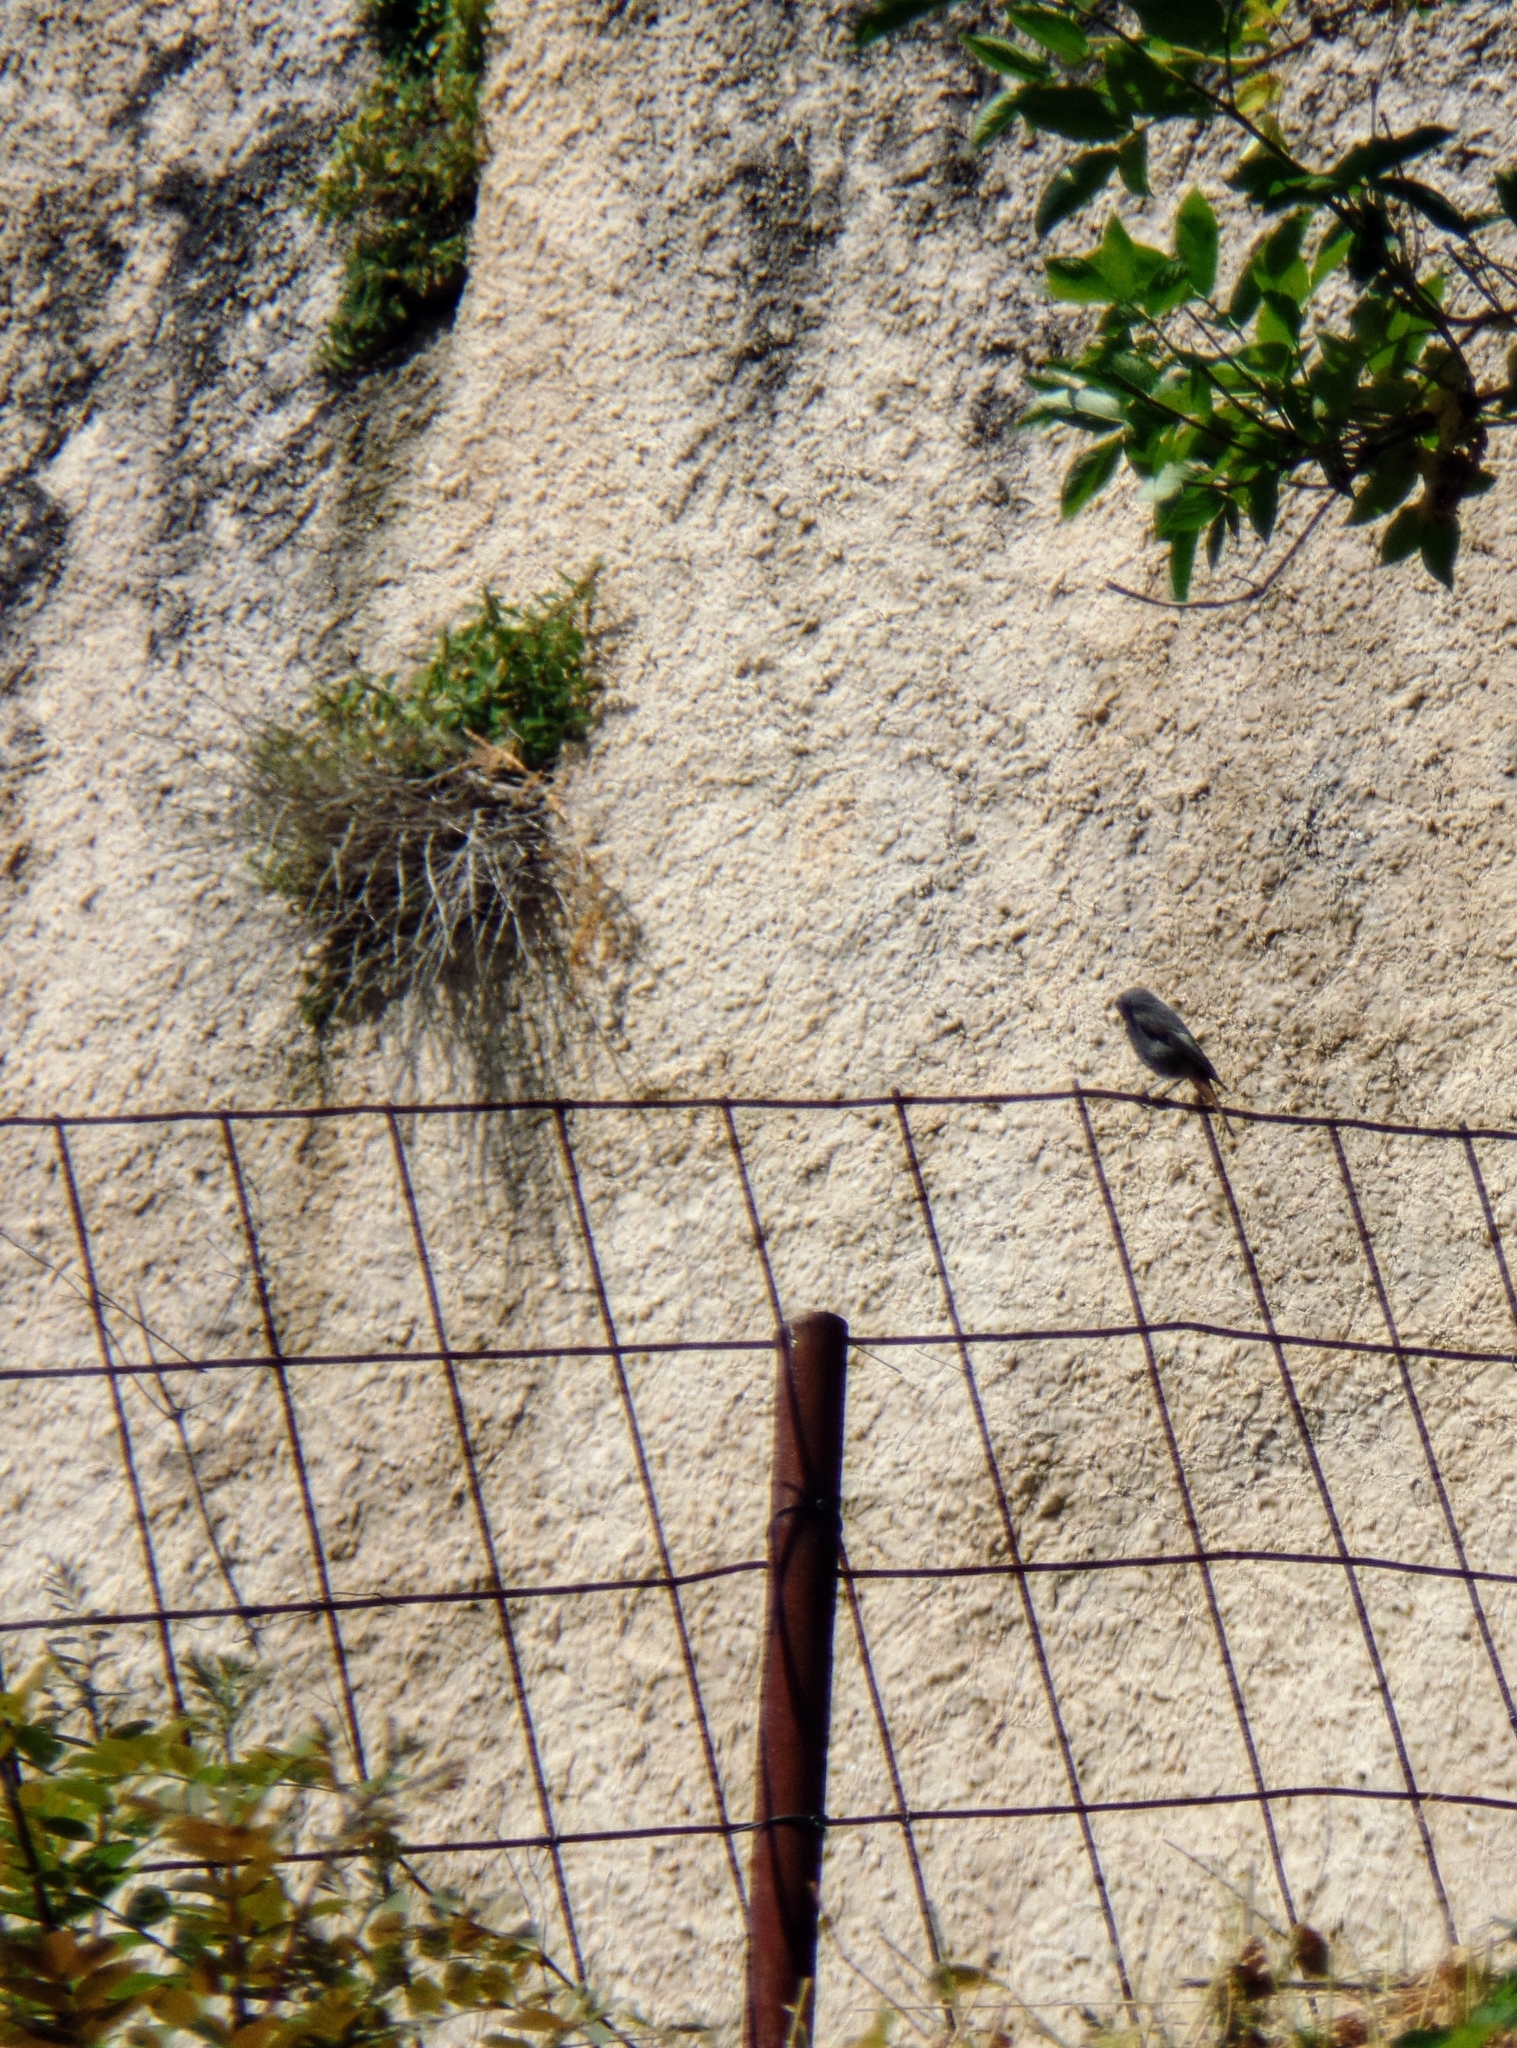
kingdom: Animalia
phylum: Chordata
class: Aves
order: Passeriformes
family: Muscicapidae
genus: Phoenicurus
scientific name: Phoenicurus ochruros
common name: Black redstart
